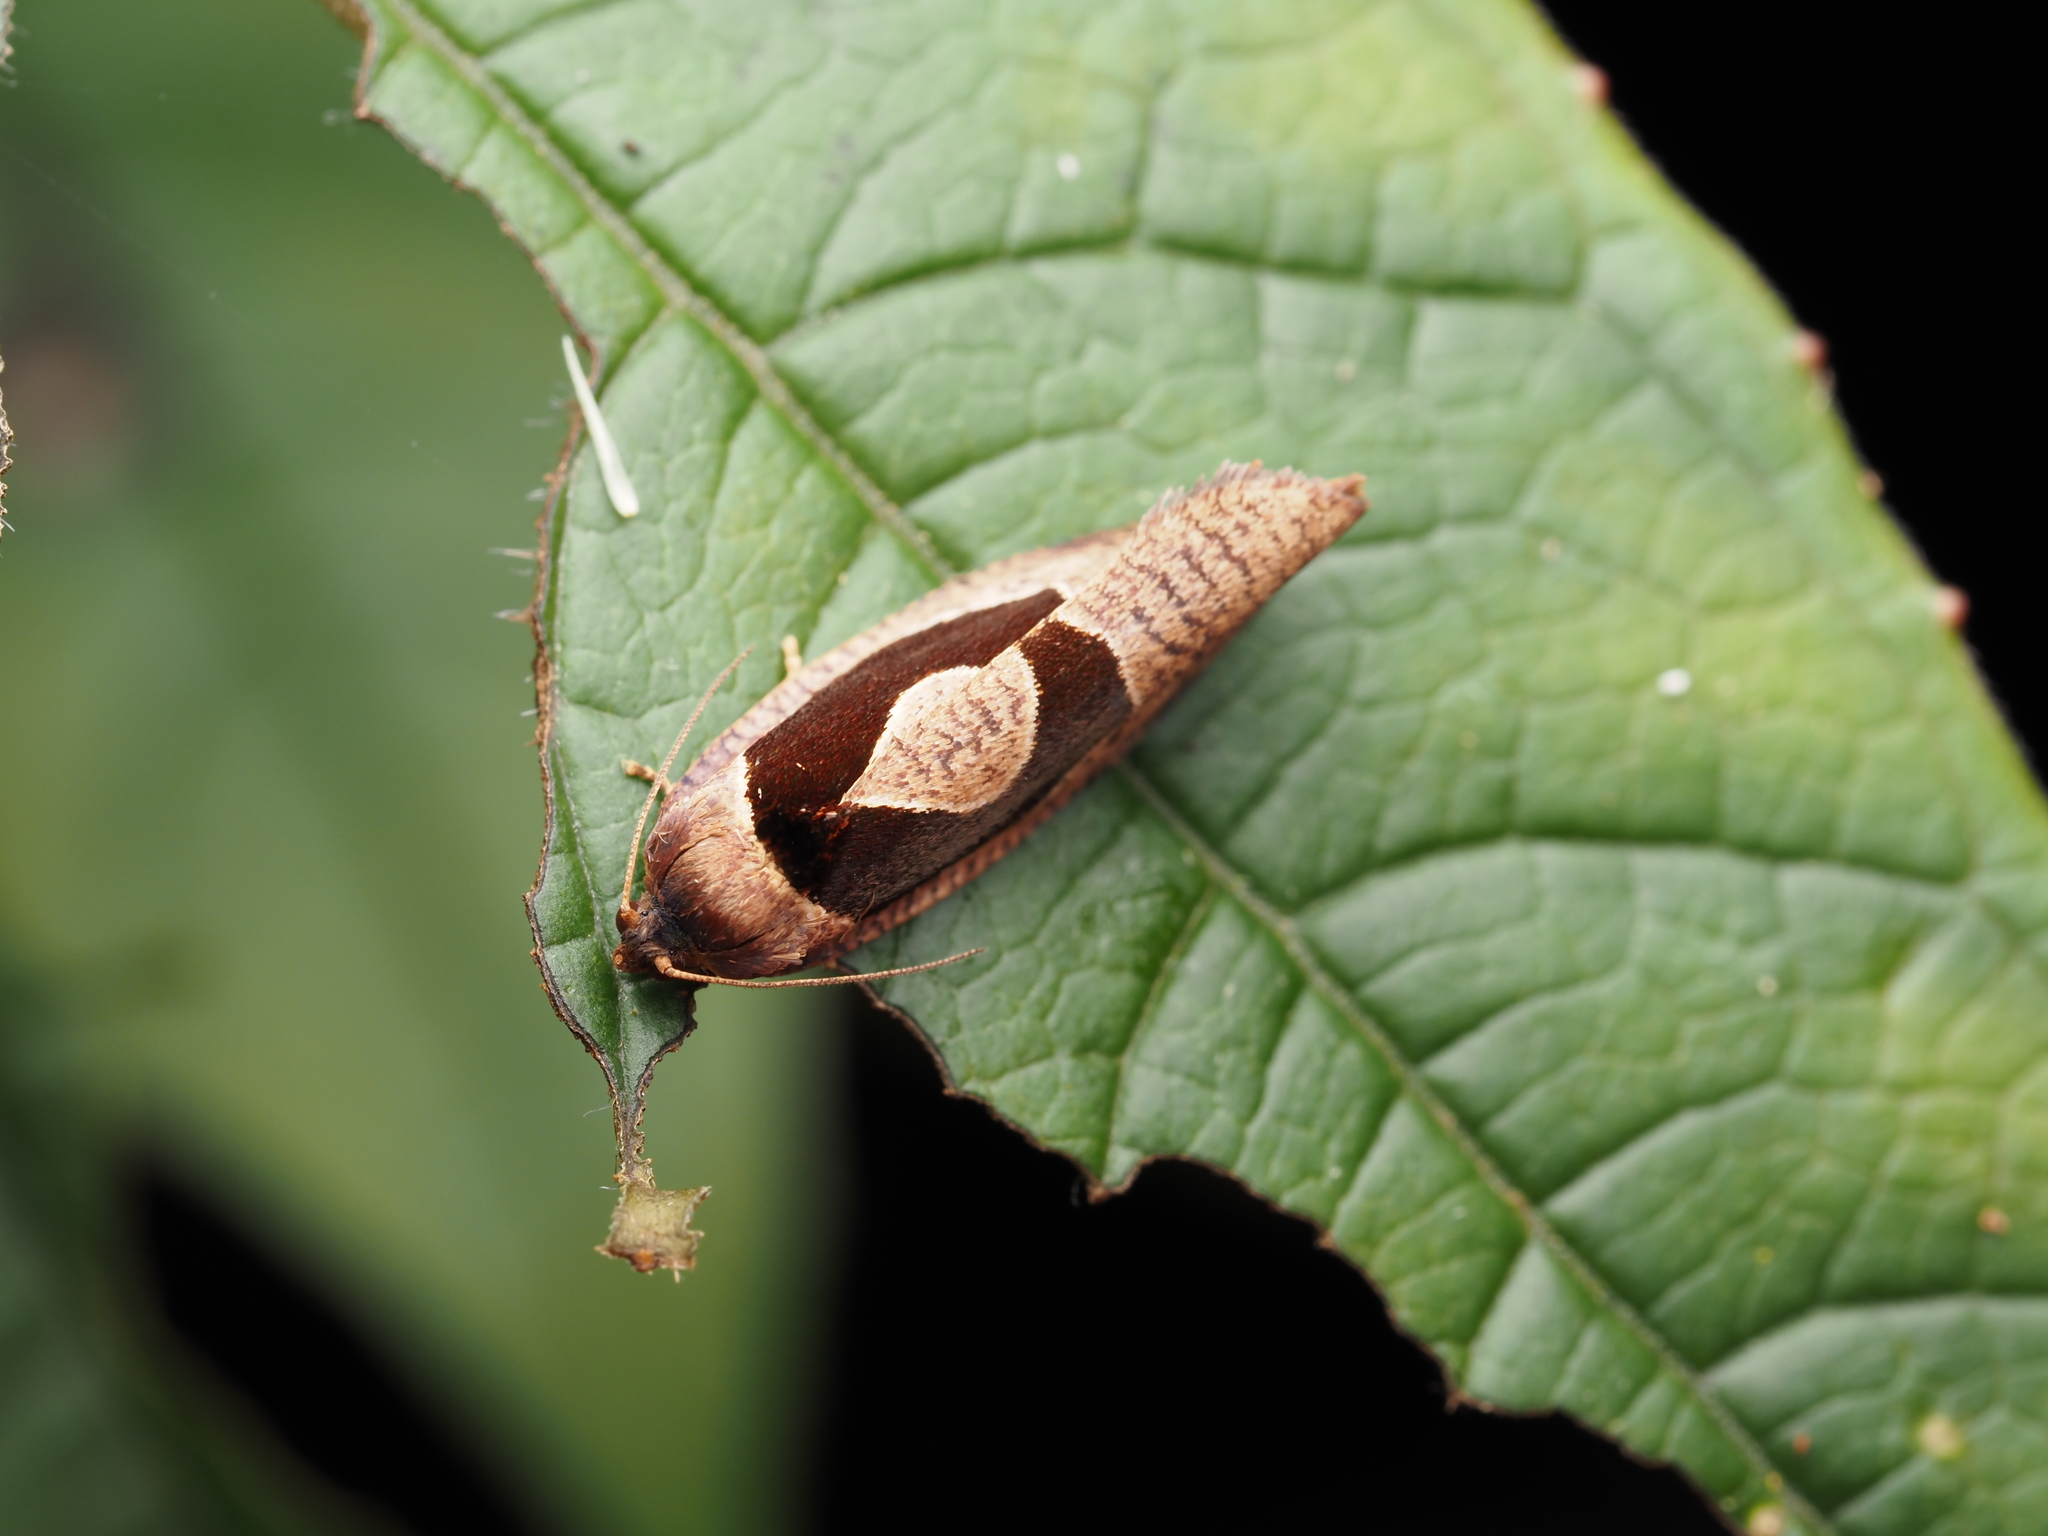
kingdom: Animalia
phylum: Arthropoda
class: Insecta
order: Lepidoptera
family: Tortricidae
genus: Ochetarcha
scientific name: Ochetarcha miraculosa
